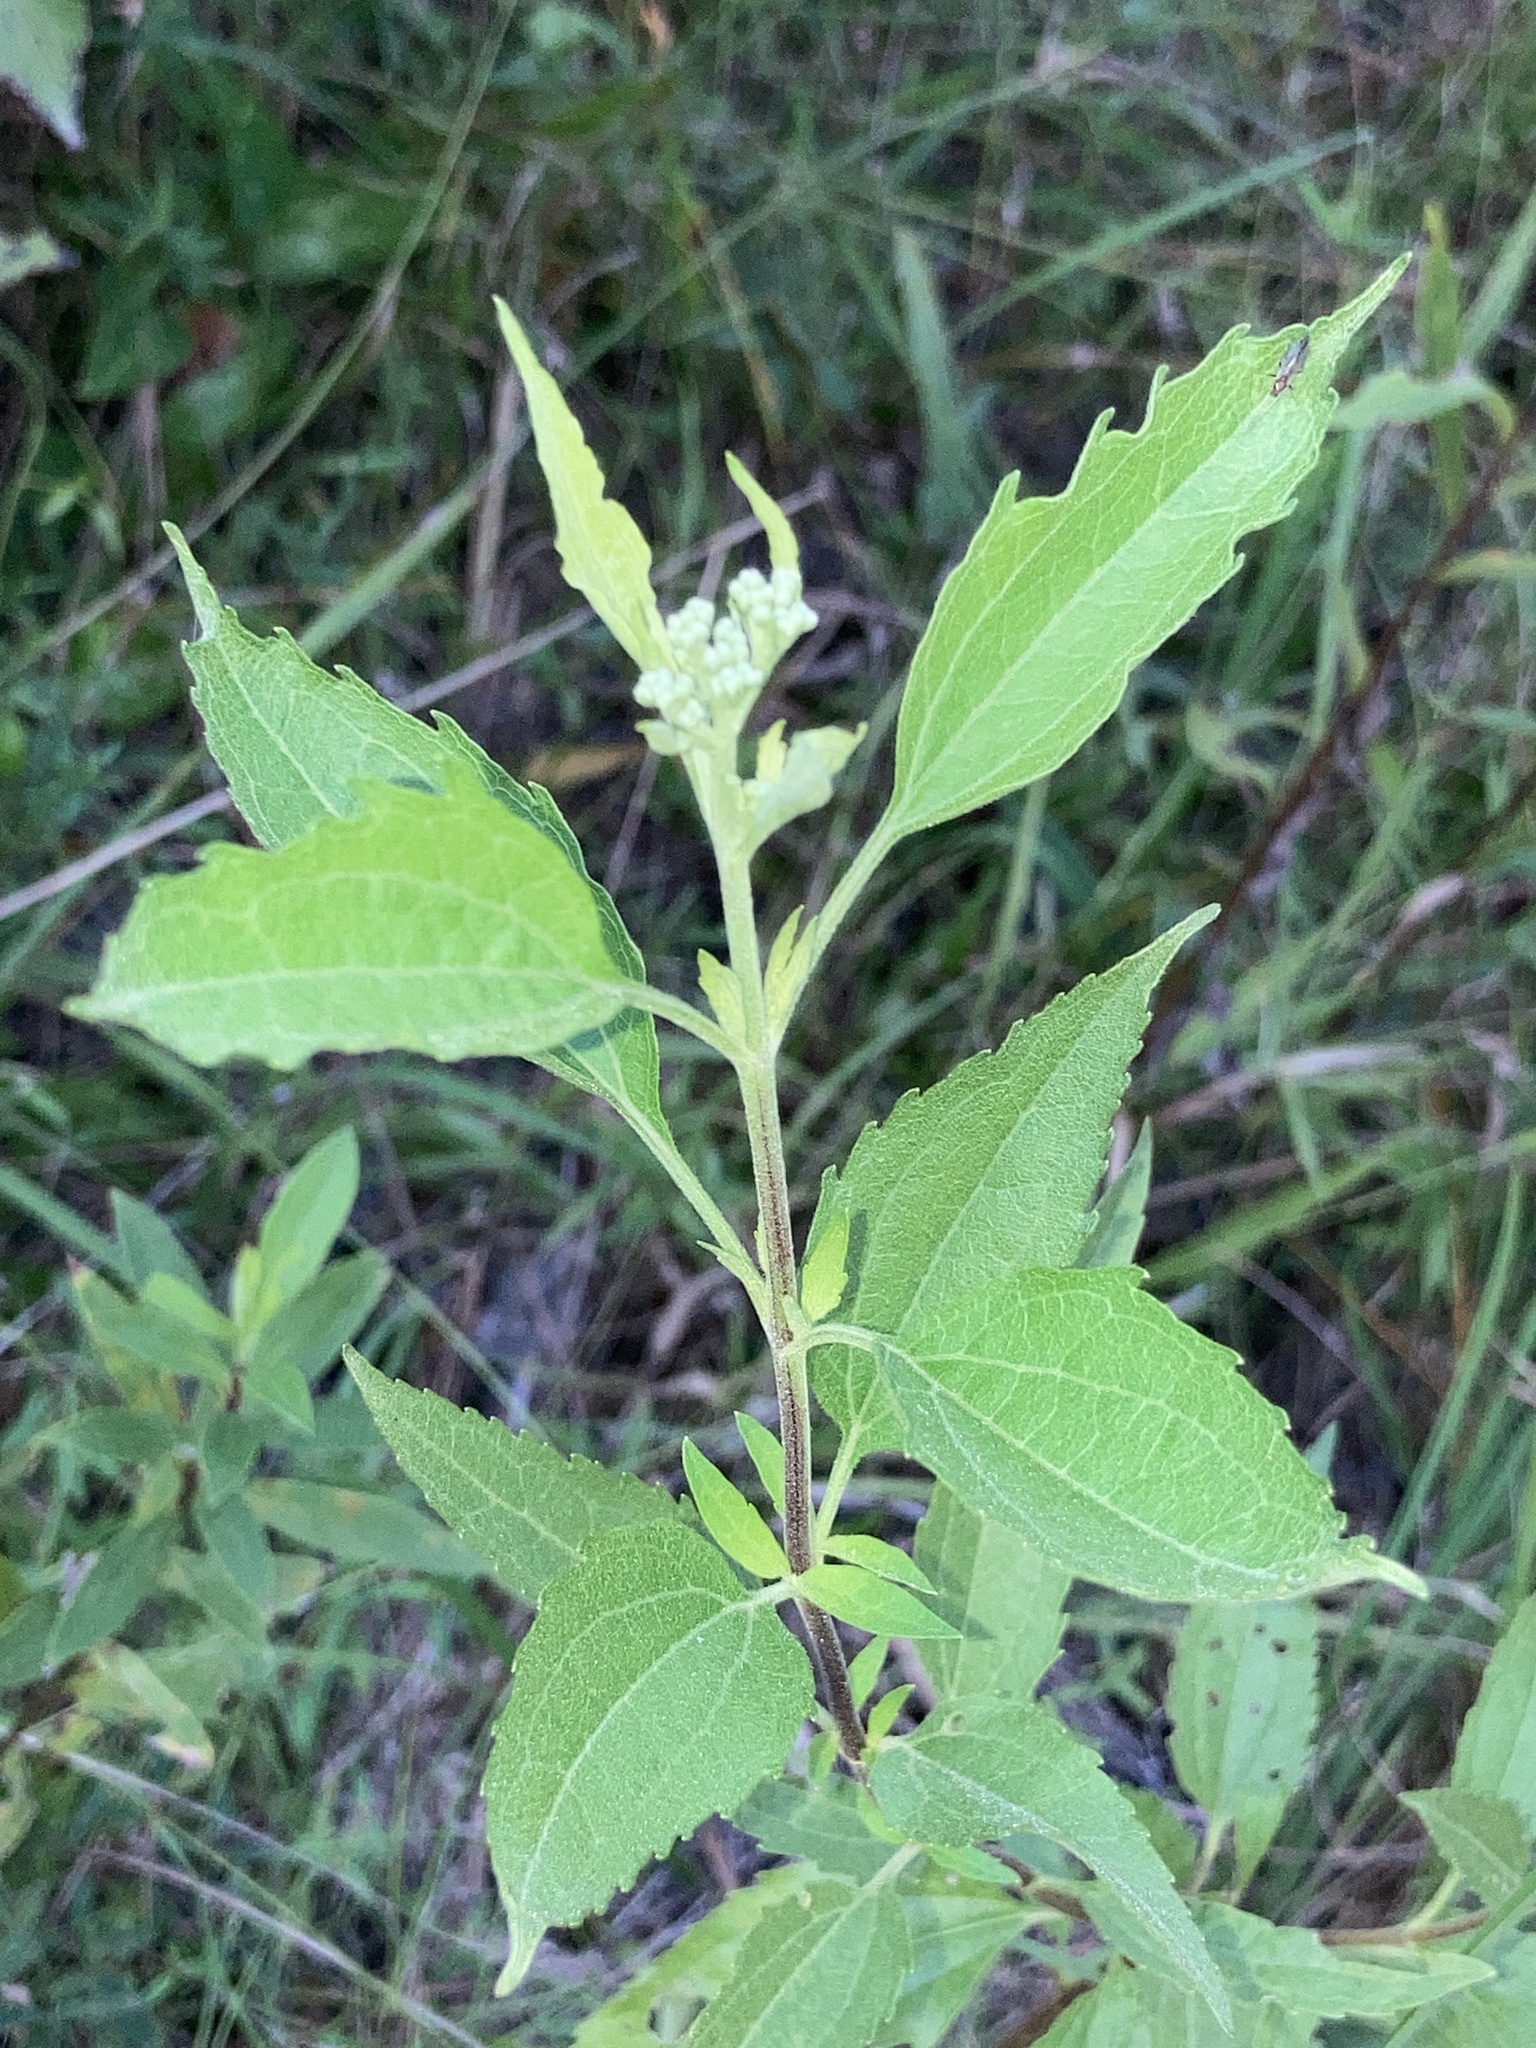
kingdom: Plantae
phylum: Tracheophyta
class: Magnoliopsida
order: Asterales
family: Asteraceae
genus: Eupatorium
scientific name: Eupatorium serotinum
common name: Late boneset
